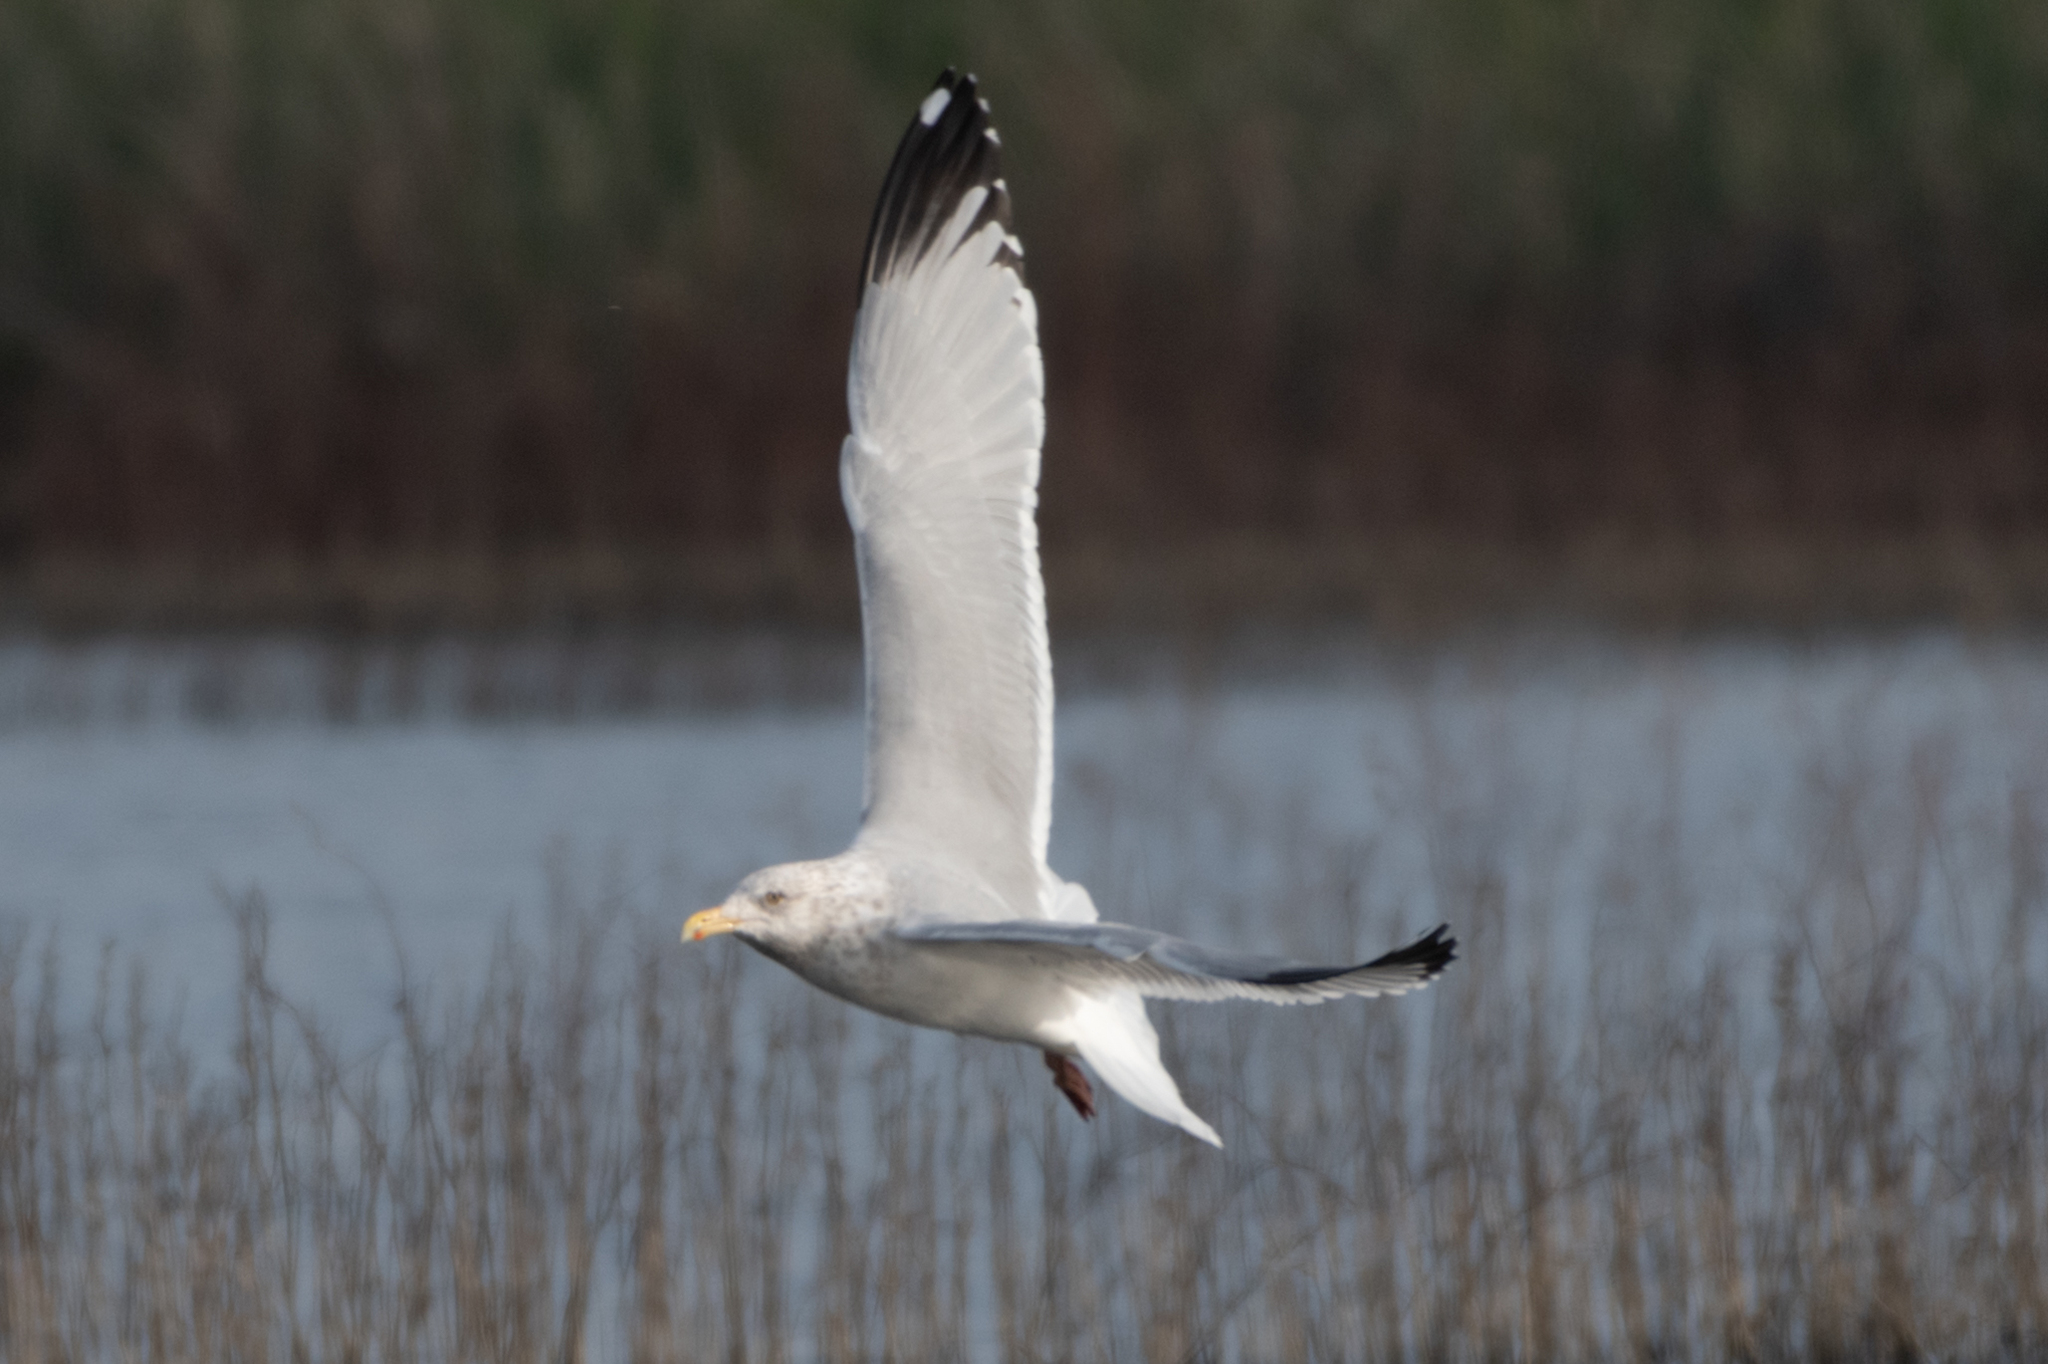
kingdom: Animalia
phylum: Chordata
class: Aves
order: Charadriiformes
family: Laridae
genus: Larus
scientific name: Larus argentatus
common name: Herring gull
